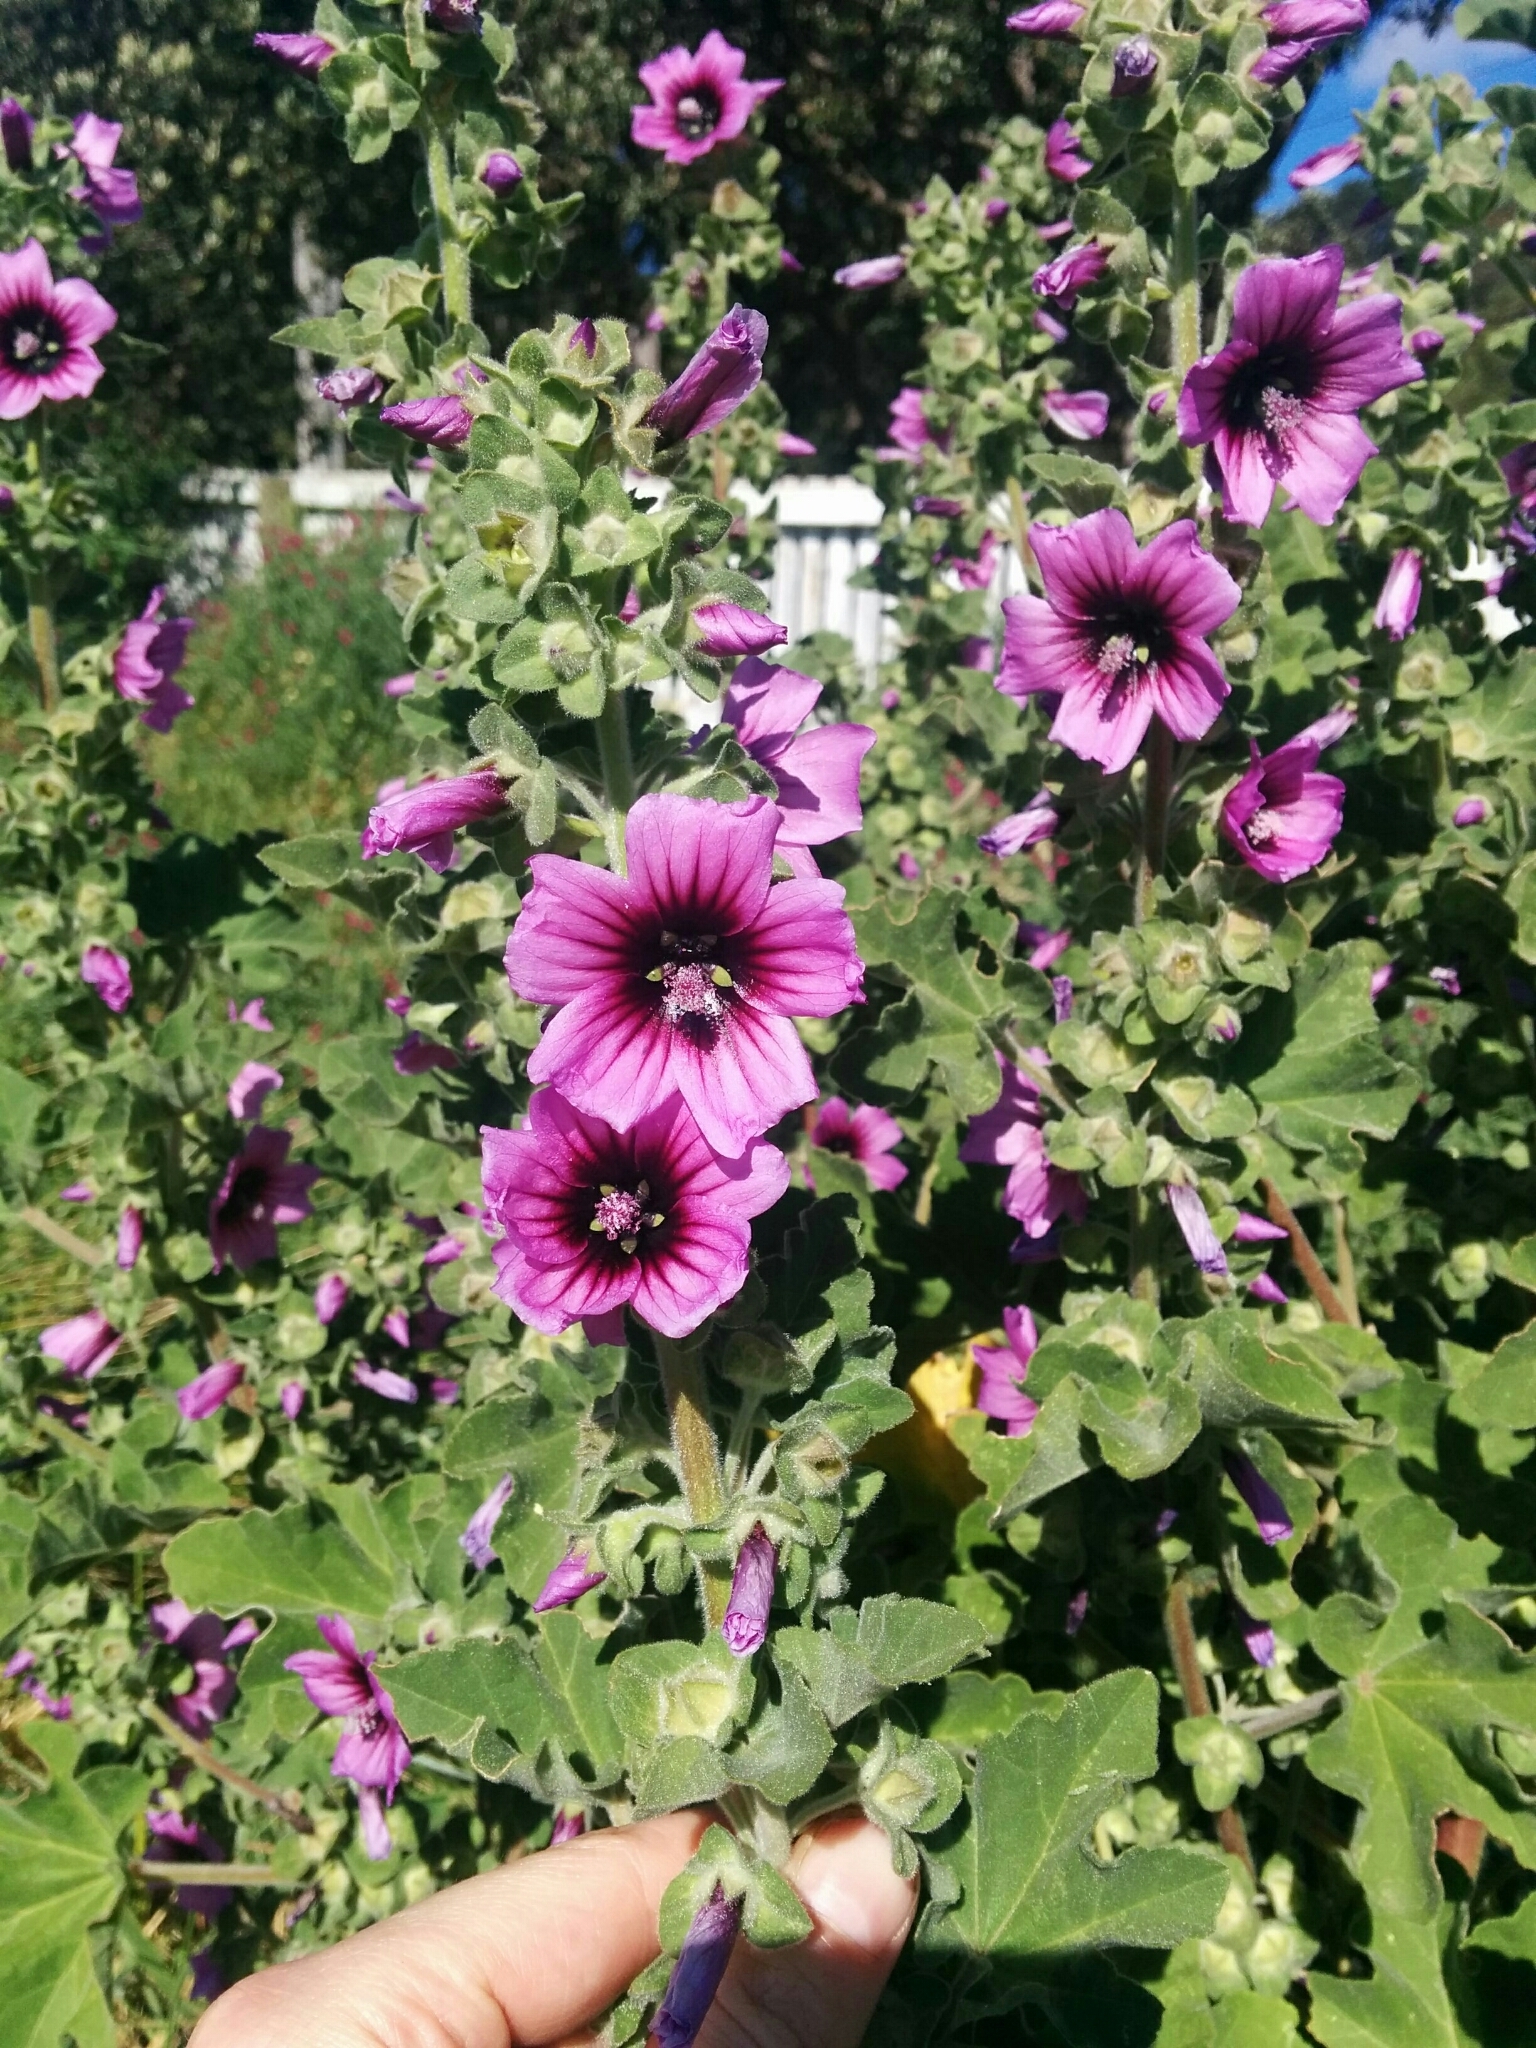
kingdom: Plantae
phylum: Tracheophyta
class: Magnoliopsida
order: Malvales
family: Malvaceae
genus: Malva
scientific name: Malva arborea
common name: Tree mallow
